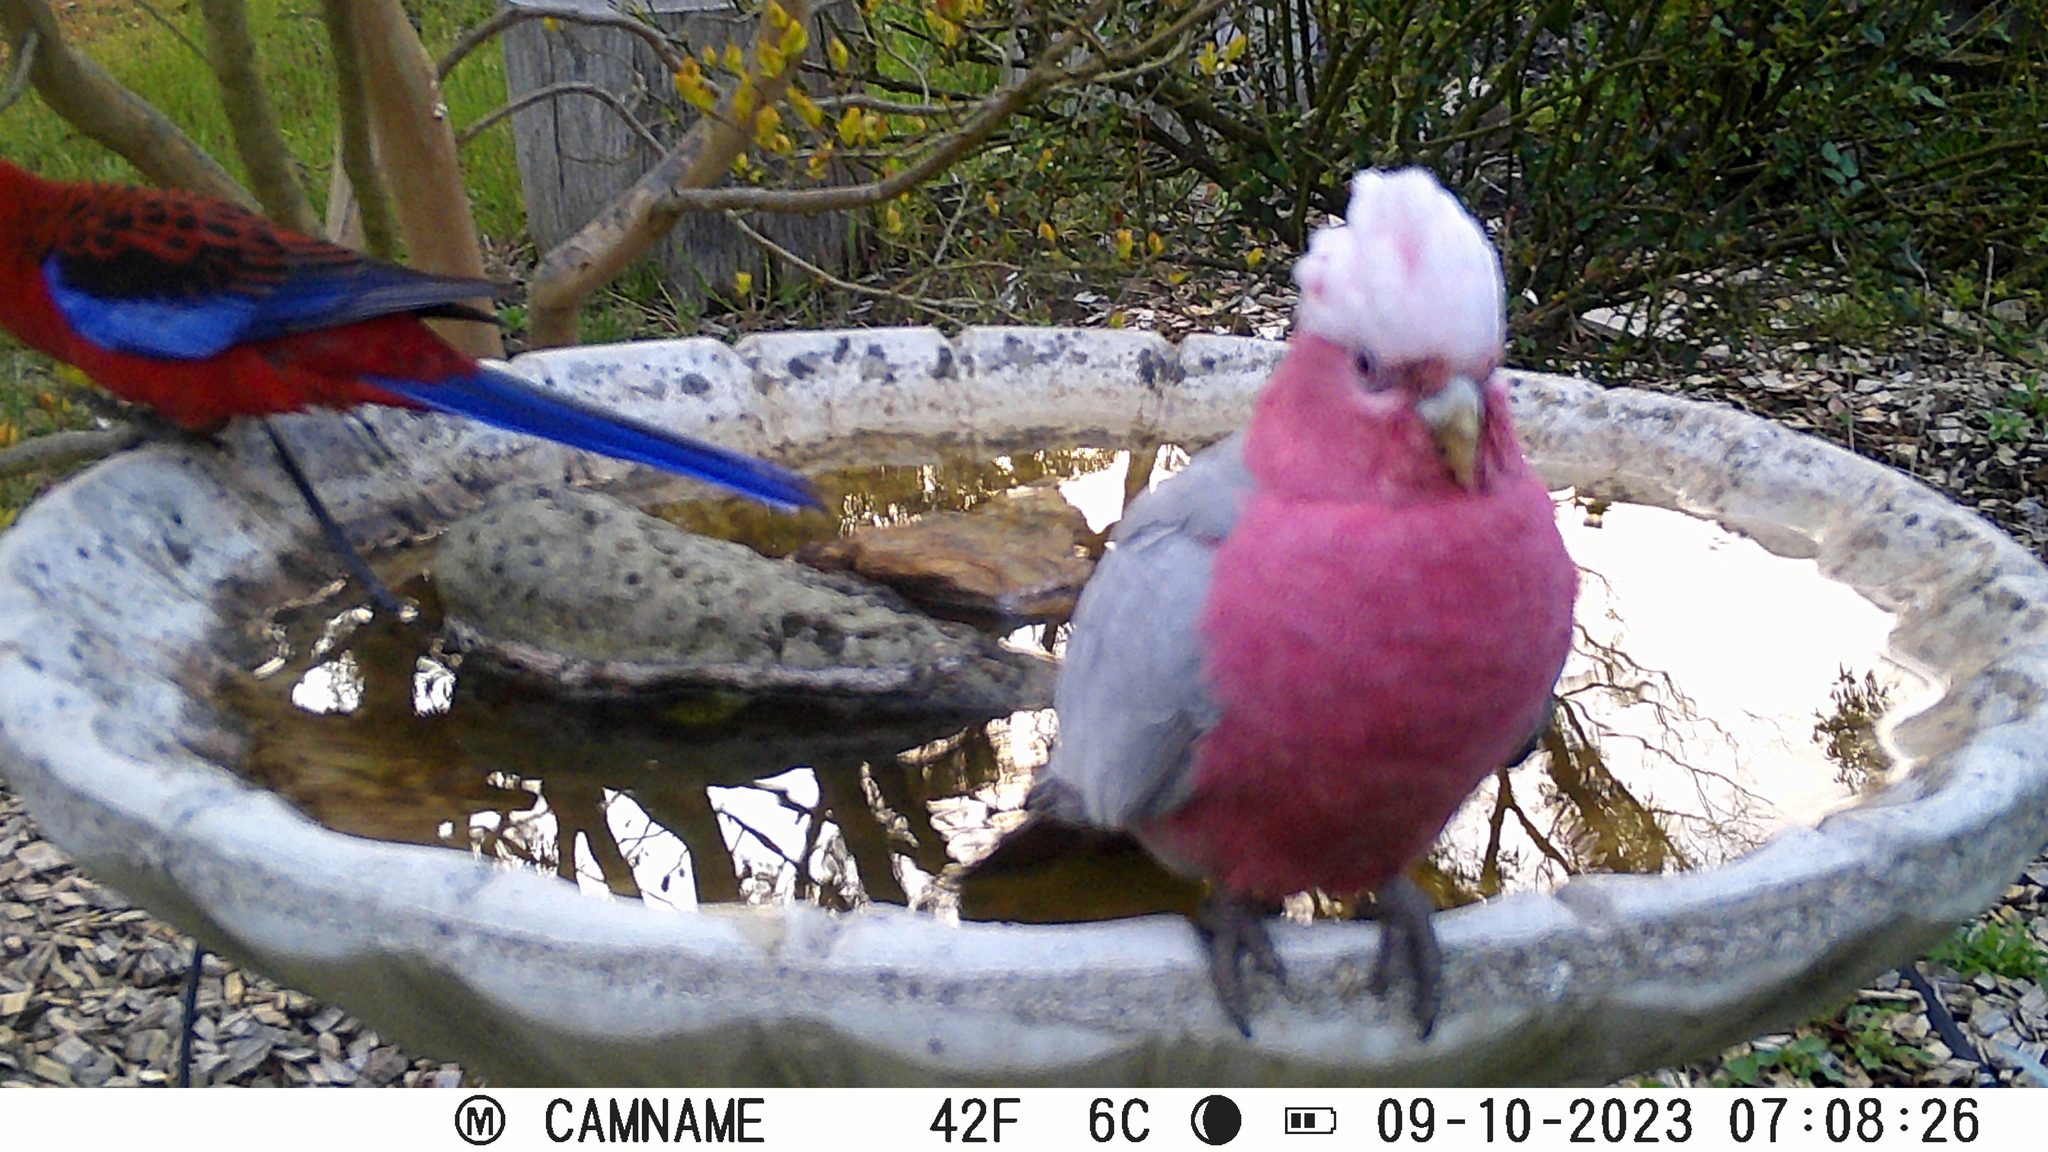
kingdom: Animalia
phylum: Chordata
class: Aves
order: Psittaciformes
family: Psittacidae
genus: Eolophus
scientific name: Eolophus roseicapilla
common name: Galah
